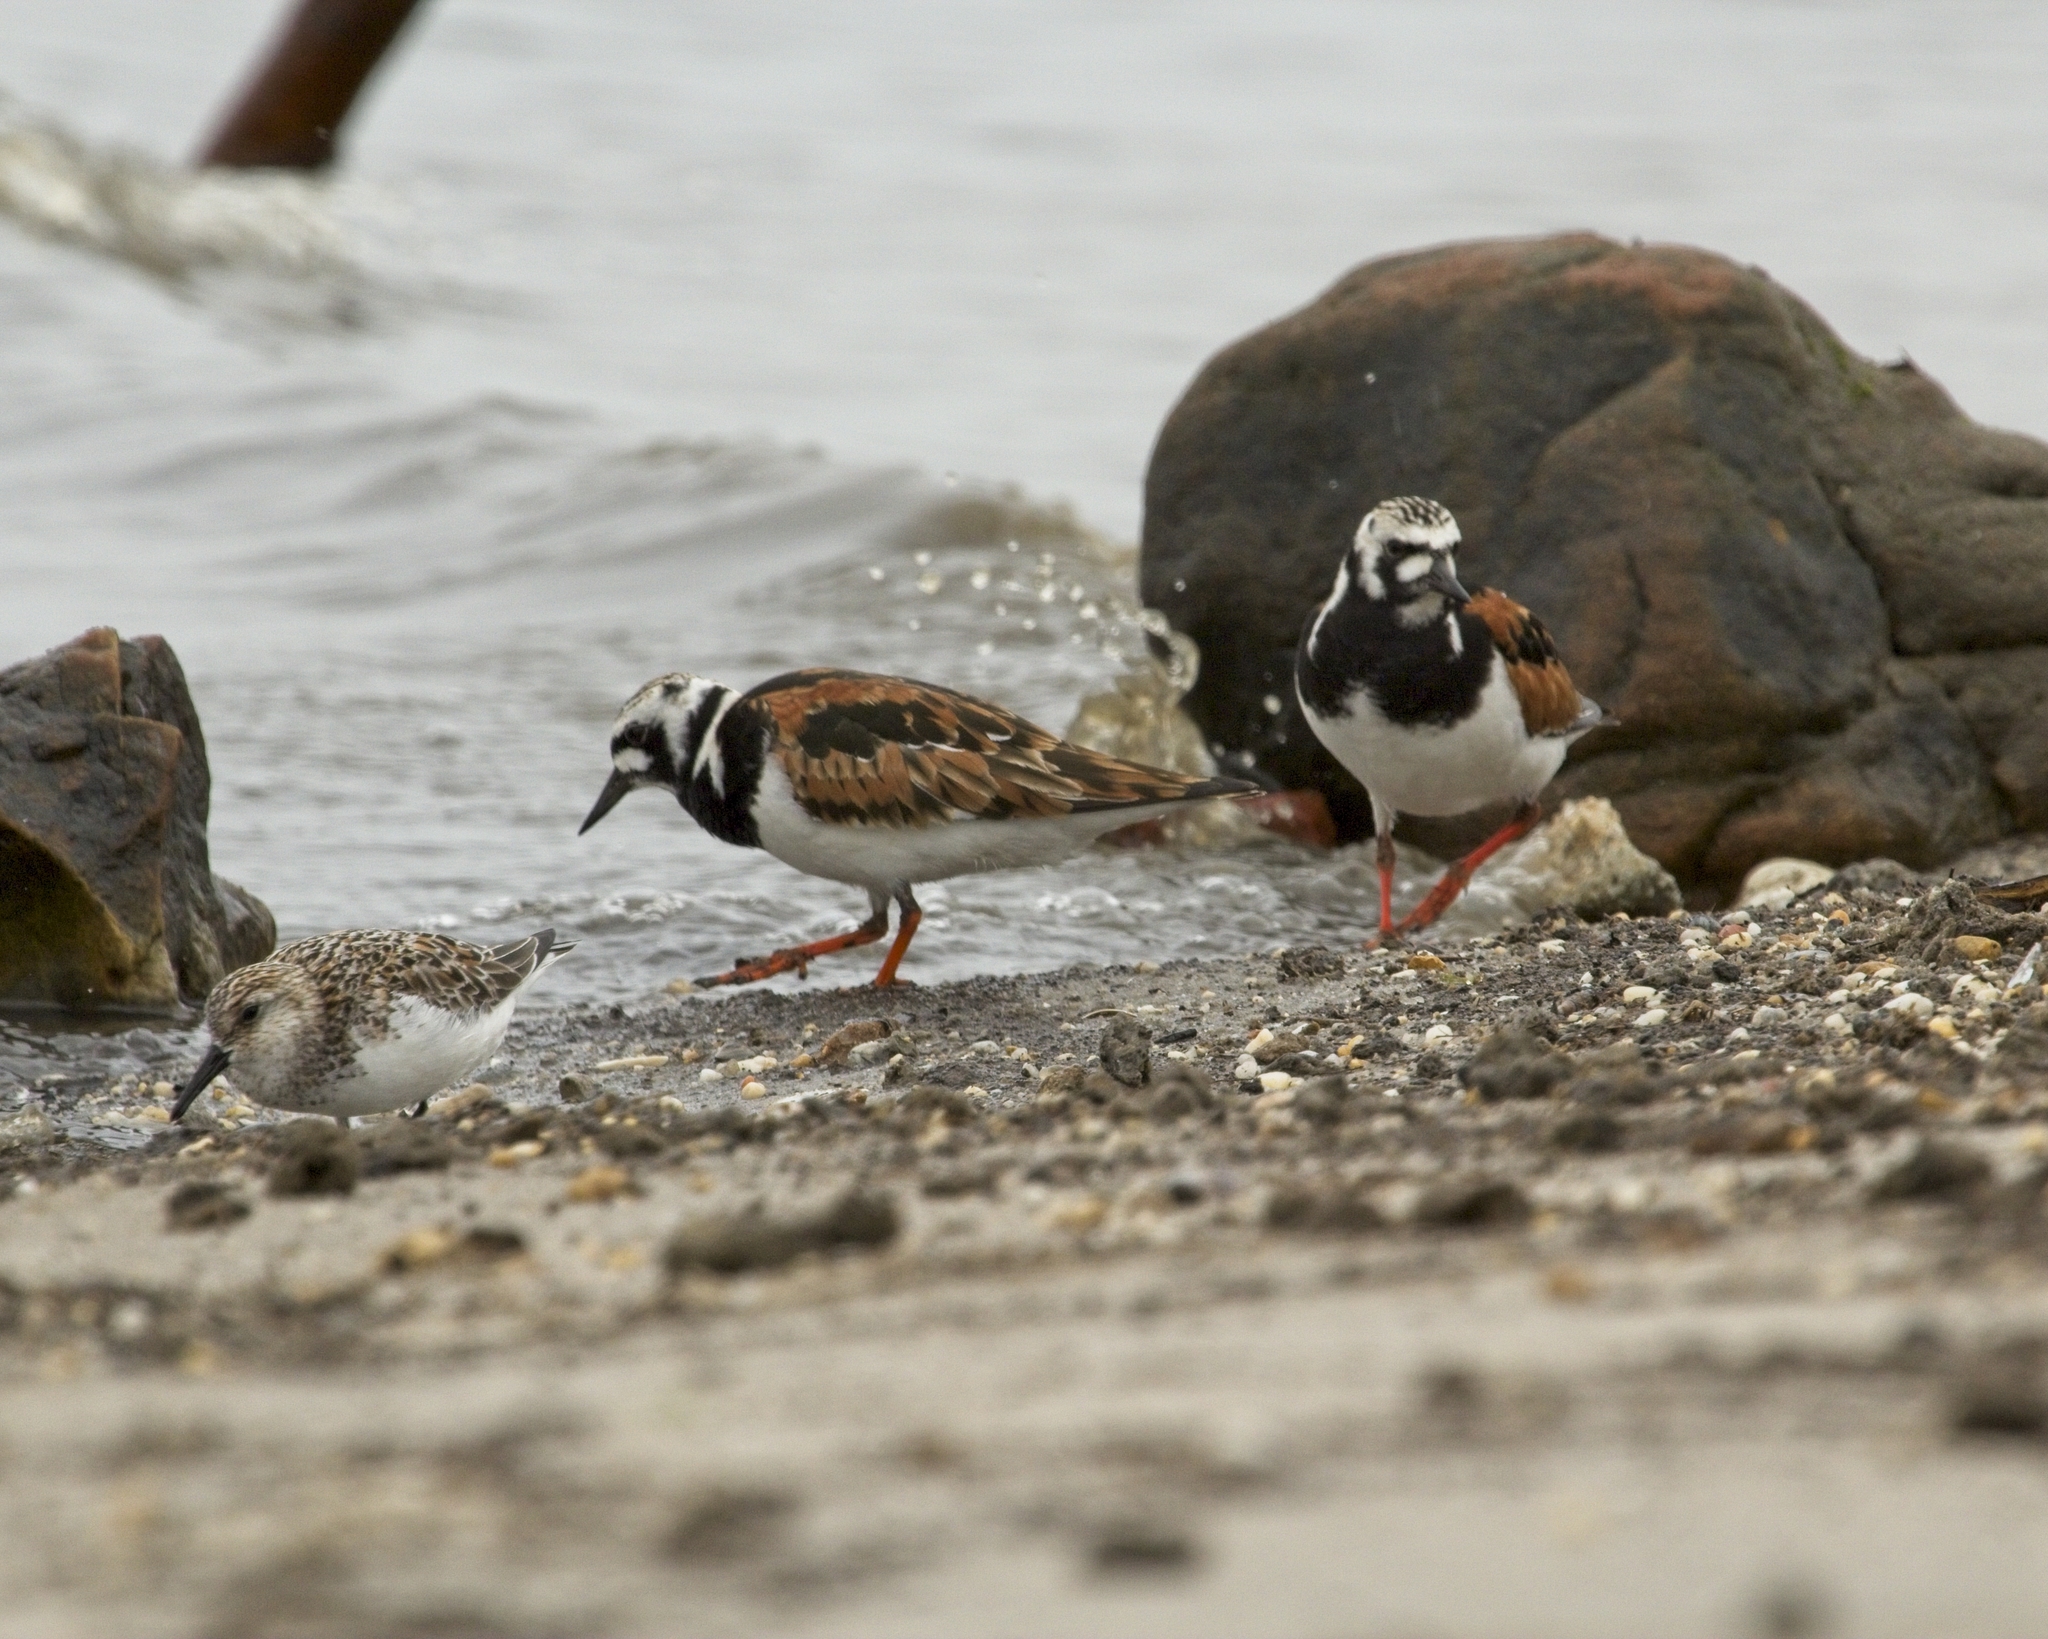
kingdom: Animalia
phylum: Chordata
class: Aves
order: Charadriiformes
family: Scolopacidae
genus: Arenaria
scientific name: Arenaria interpres
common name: Ruddy turnstone
